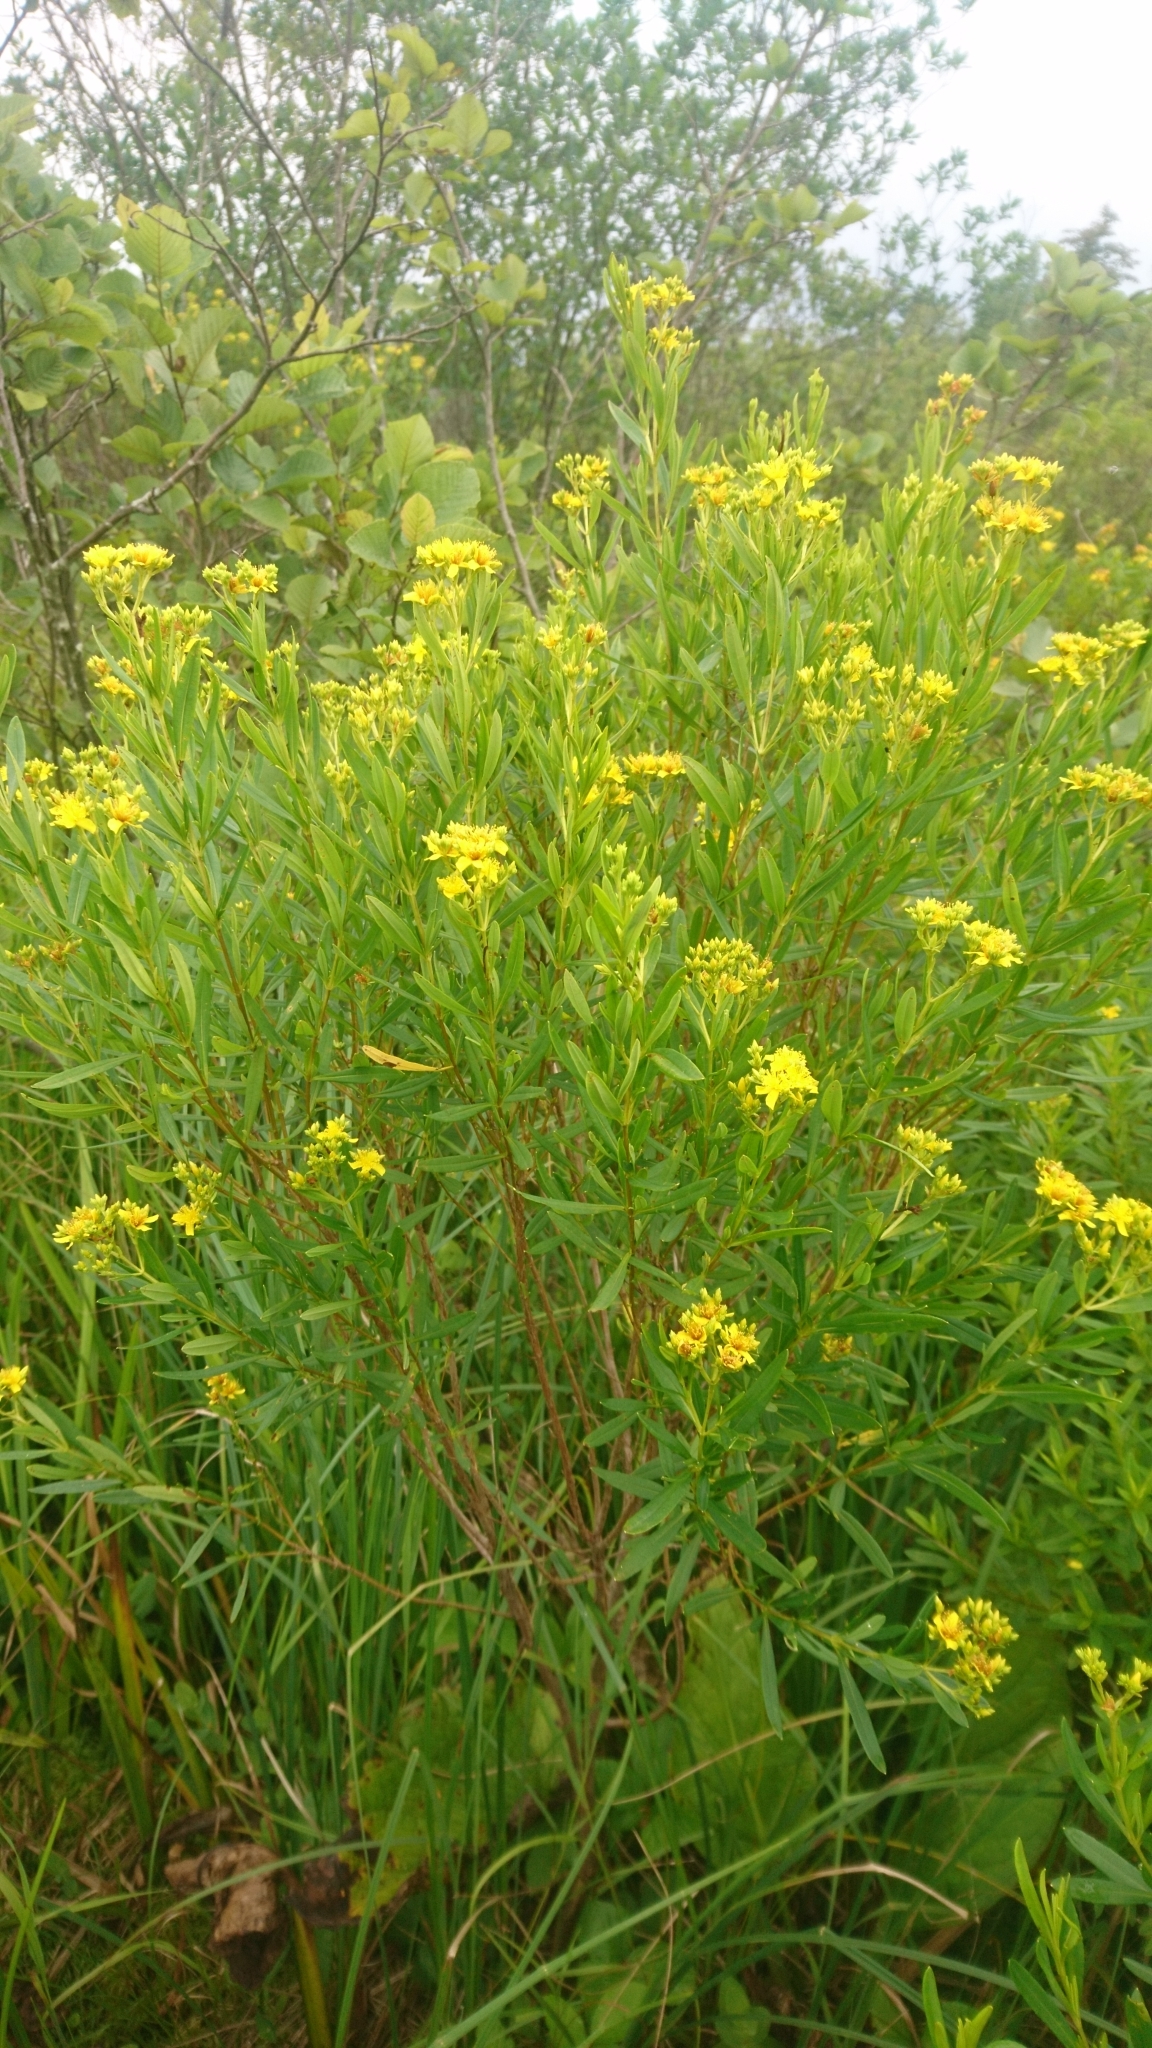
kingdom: Plantae
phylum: Tracheophyta
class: Magnoliopsida
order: Malpighiales
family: Hypericaceae
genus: Hypericum
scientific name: Hypericum densiflorum
